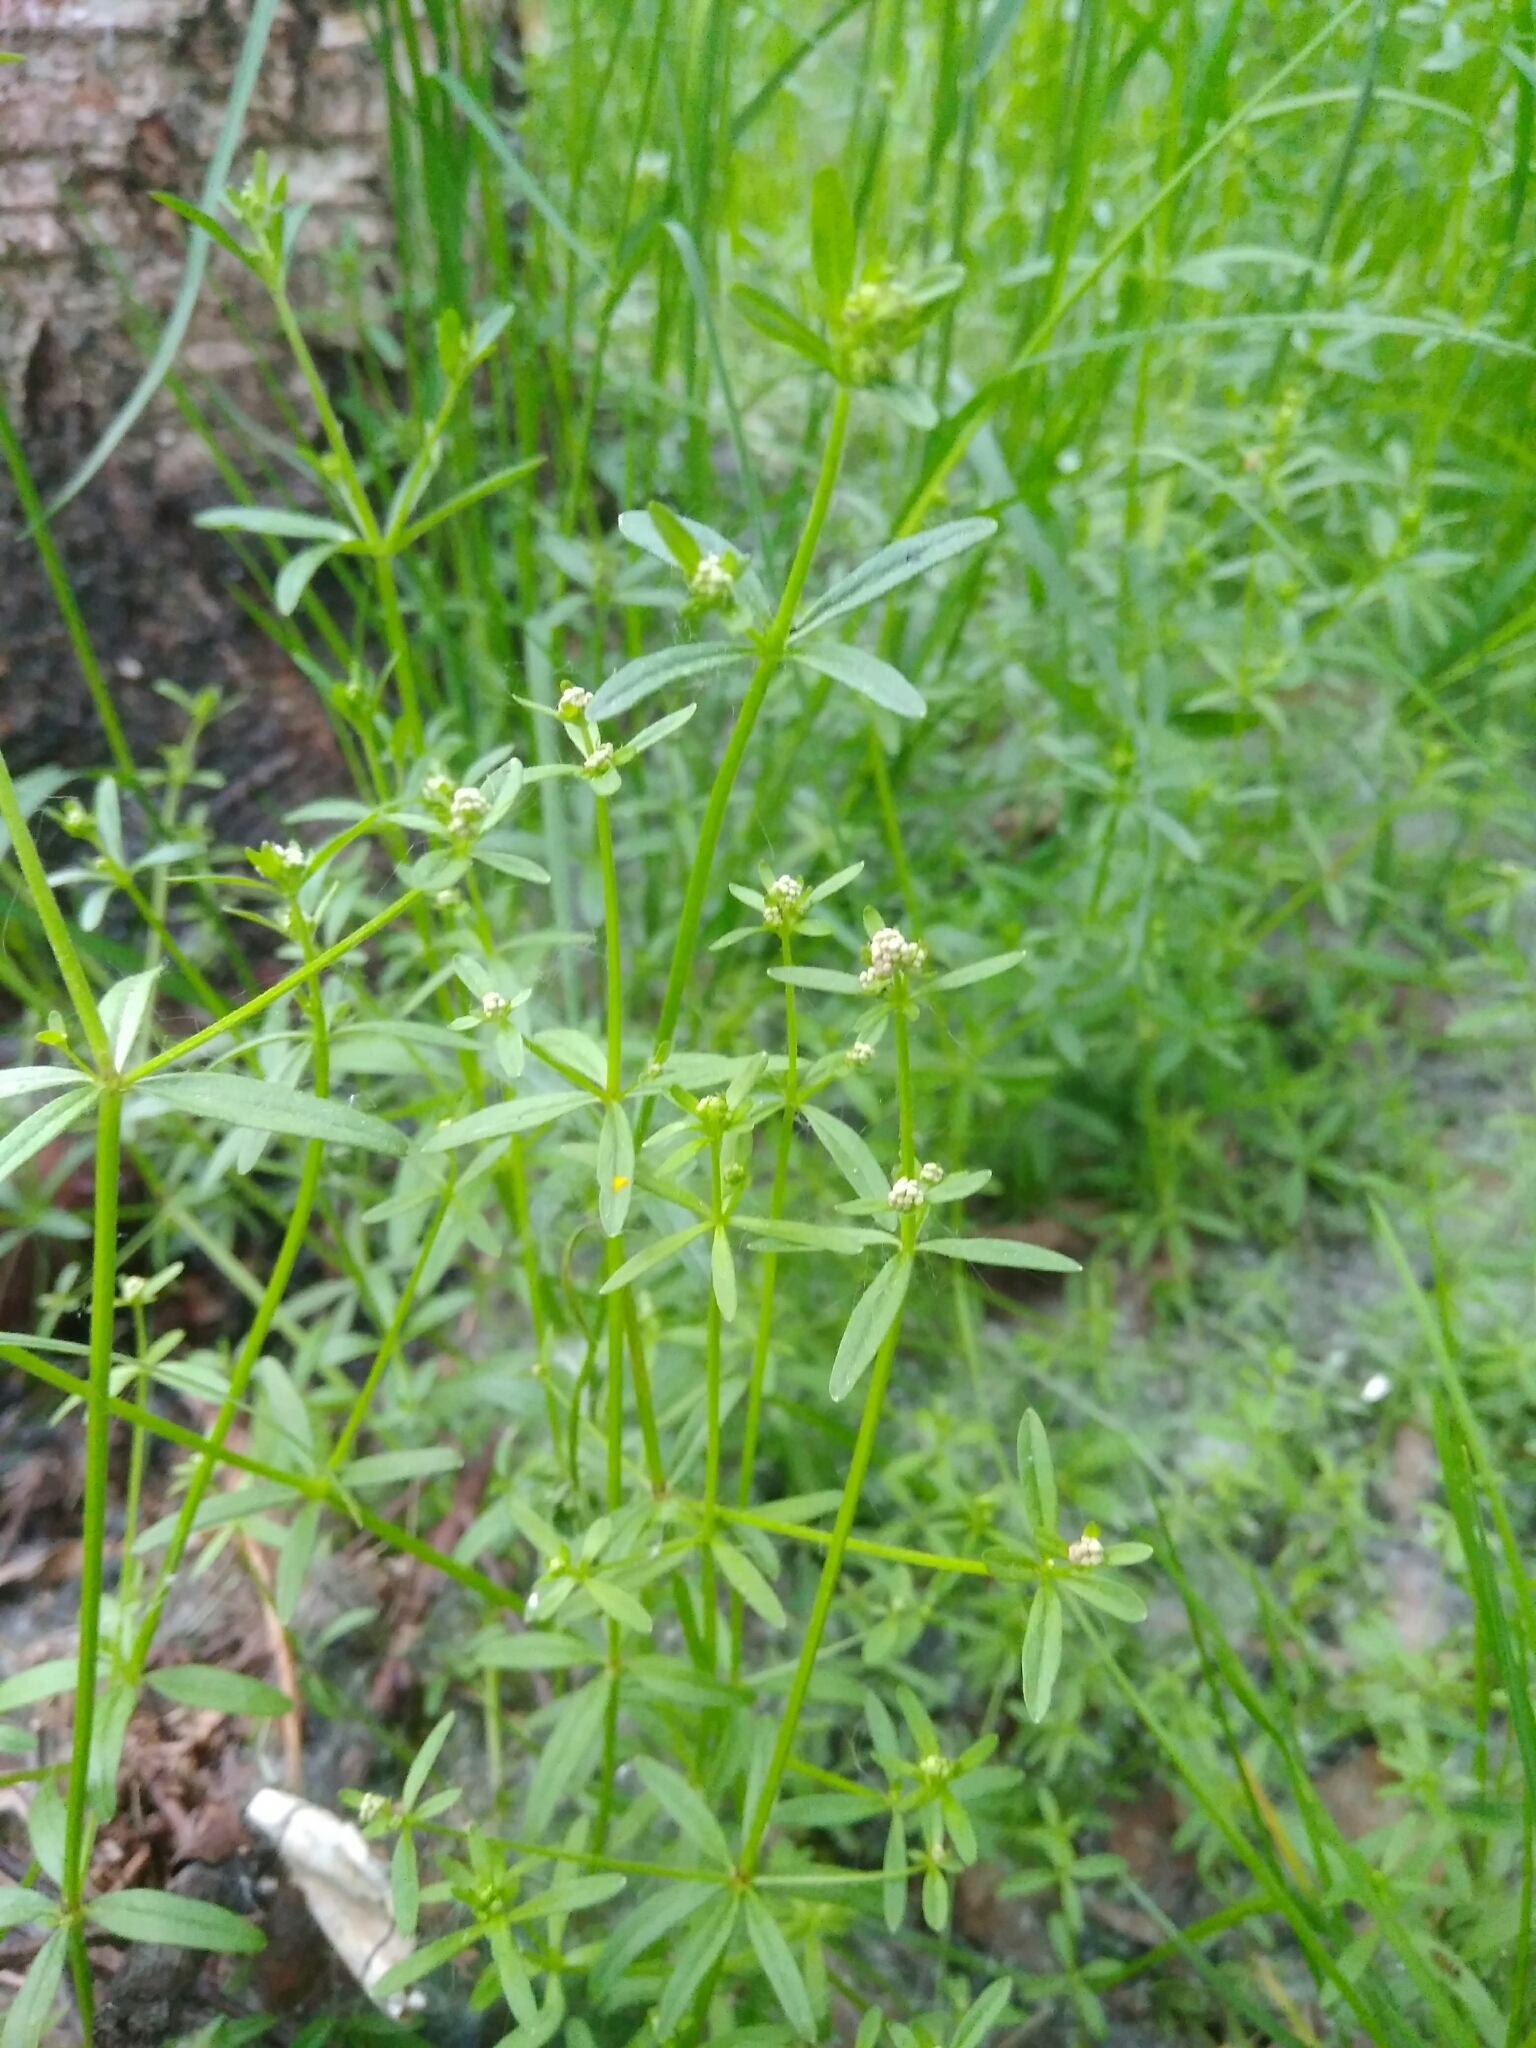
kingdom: Plantae
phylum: Tracheophyta
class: Magnoliopsida
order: Gentianales
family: Rubiaceae
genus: Galium
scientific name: Galium palustre
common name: Common marsh-bedstraw
